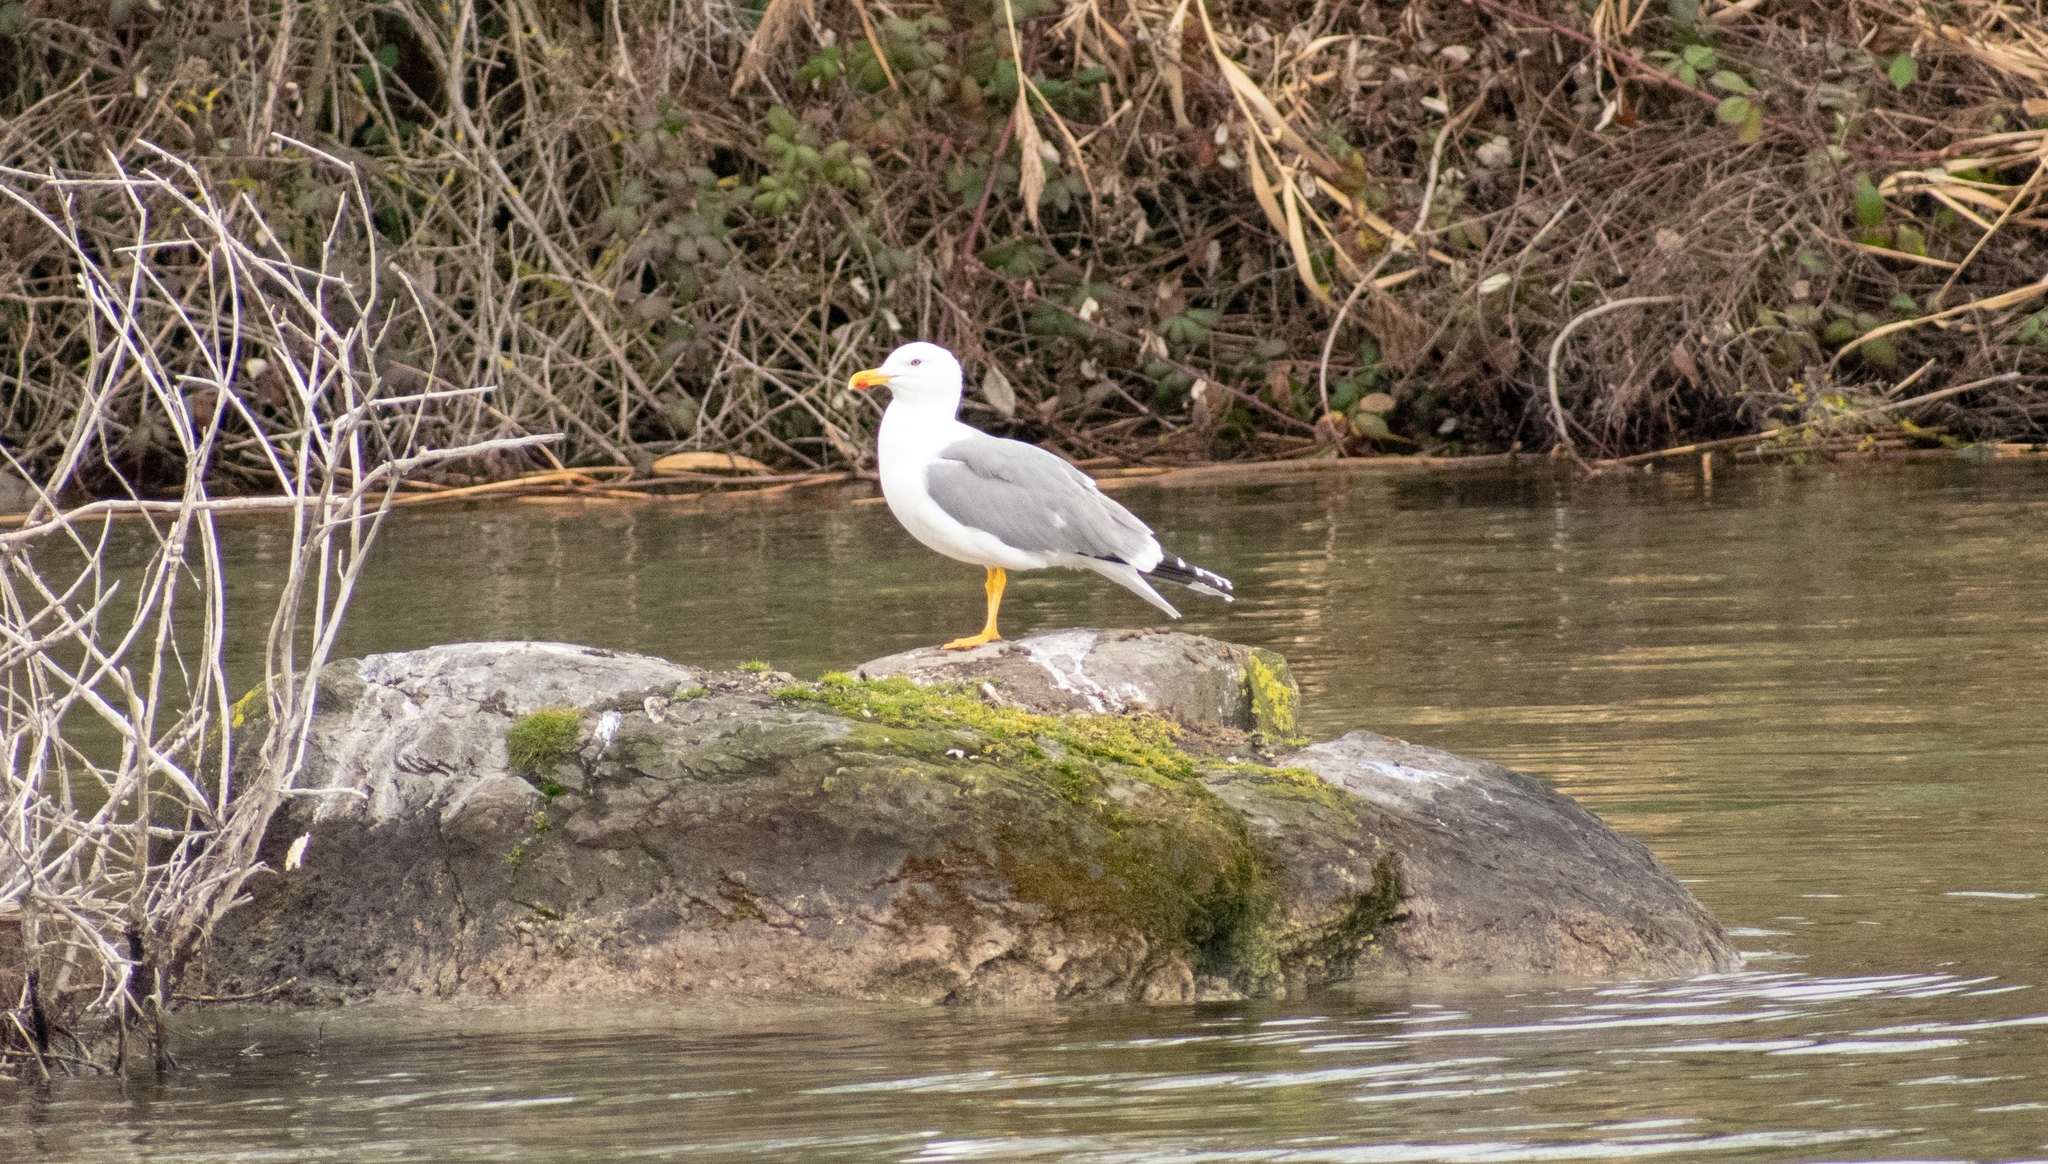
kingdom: Animalia
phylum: Chordata
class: Aves
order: Charadriiformes
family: Laridae
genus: Larus
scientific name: Larus michahellis
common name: Yellow-legged gull
